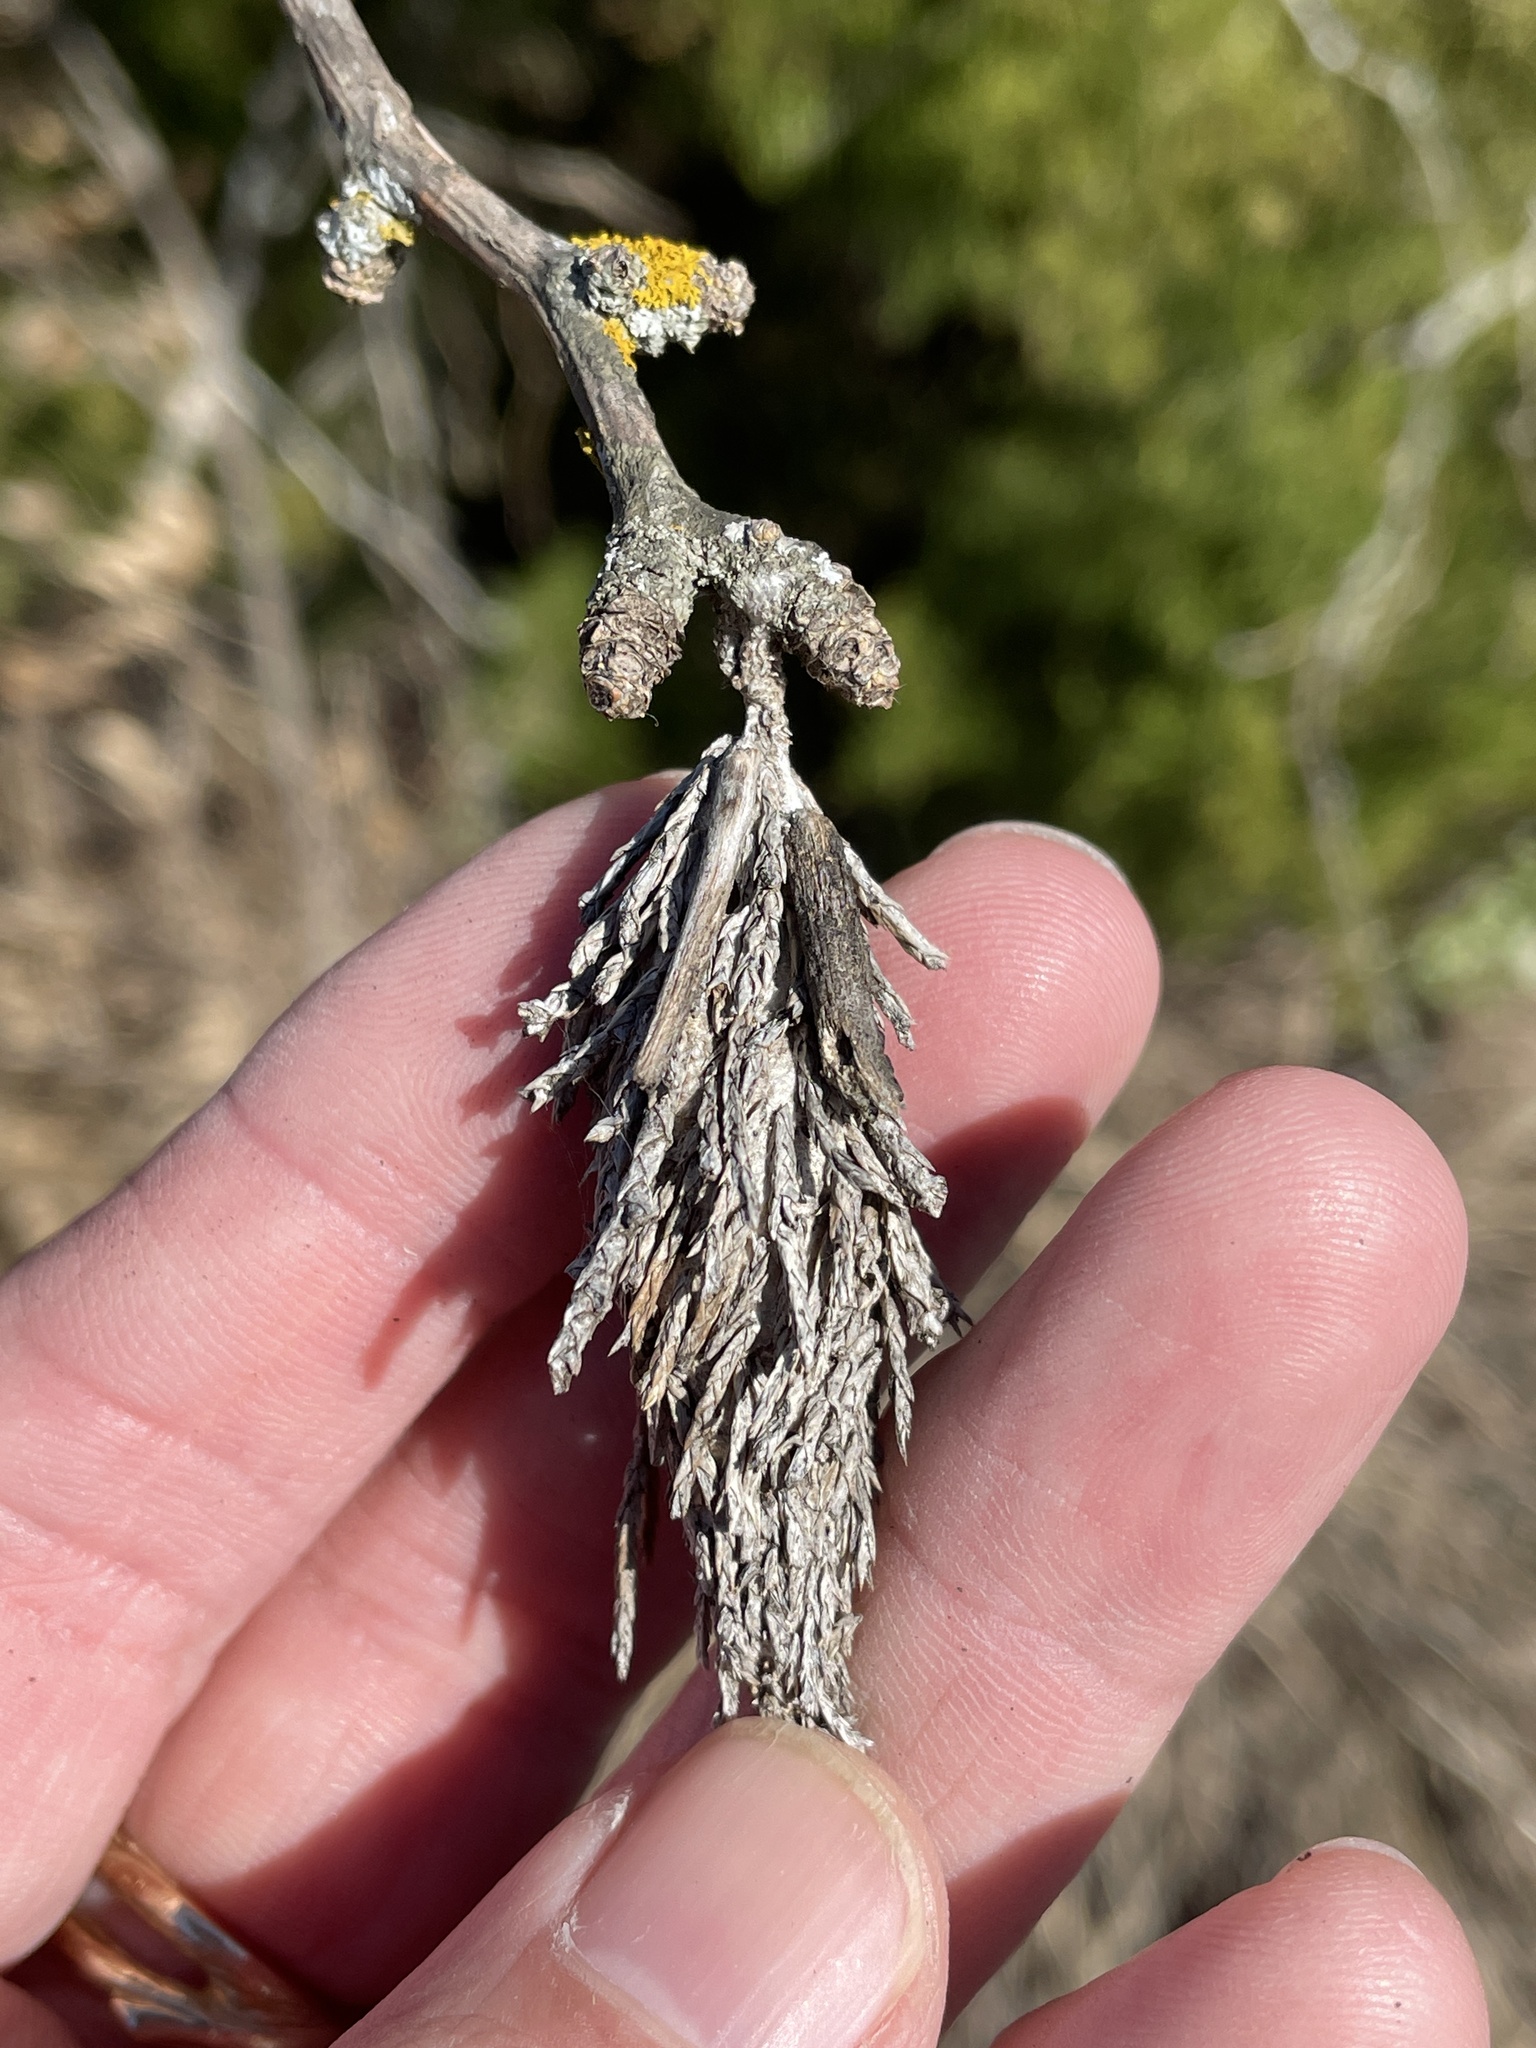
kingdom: Animalia
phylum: Arthropoda
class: Insecta
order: Lepidoptera
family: Psychidae
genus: Thyridopteryx
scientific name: Thyridopteryx ephemeraeformis
